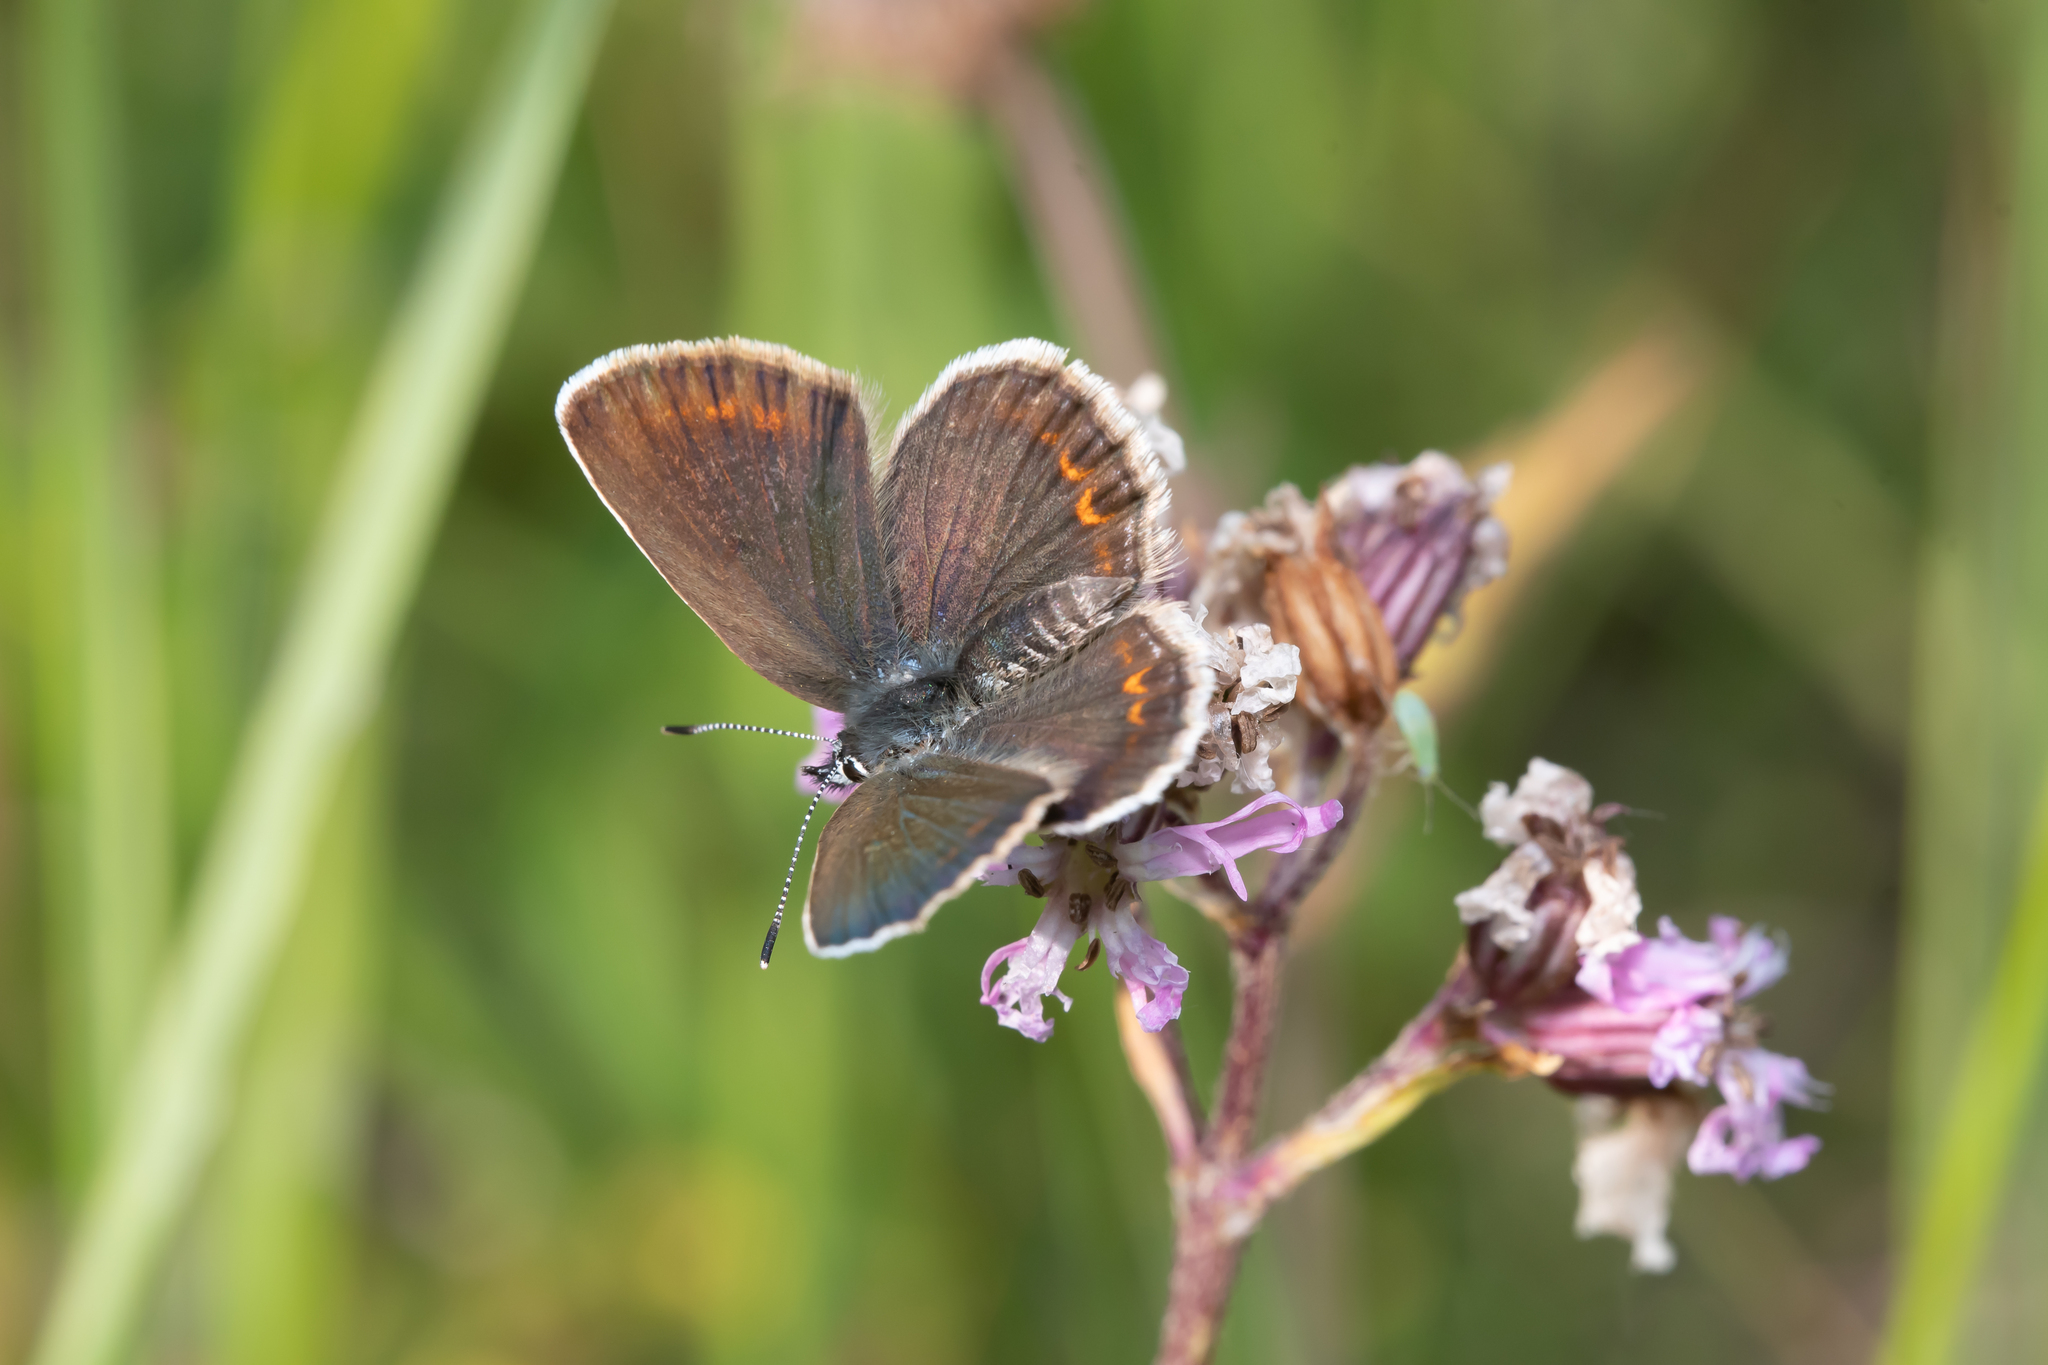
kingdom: Animalia
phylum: Arthropoda
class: Insecta
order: Lepidoptera
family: Lycaenidae
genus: Plebejus
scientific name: Plebejus argus
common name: Silver-studded blue
